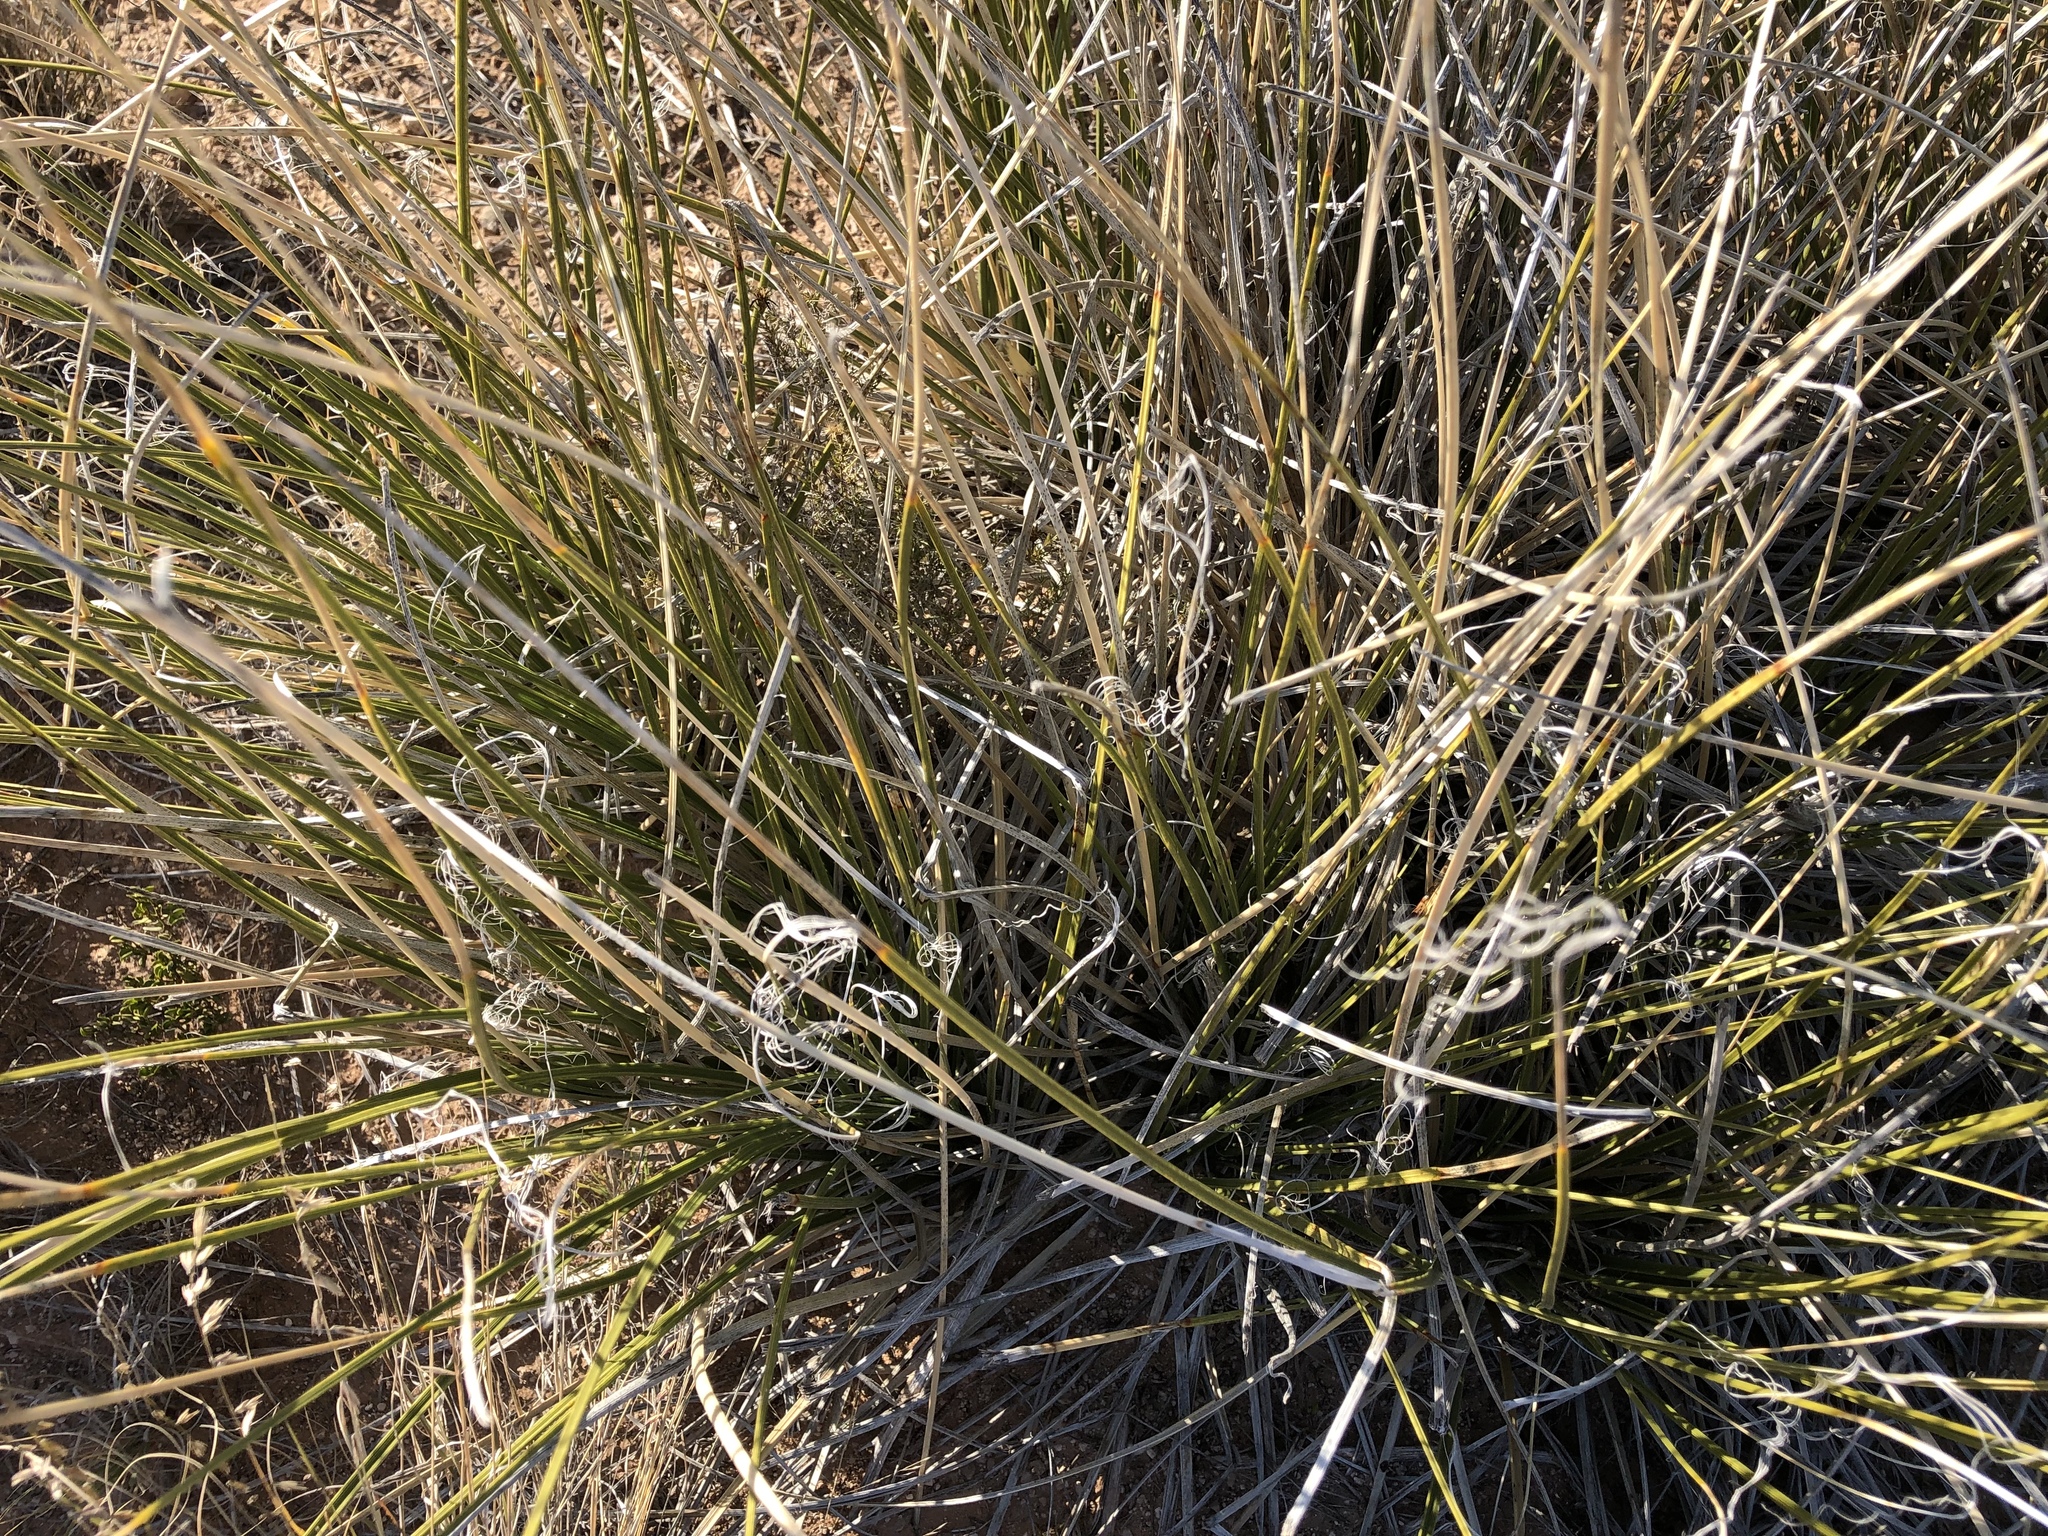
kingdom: Plantae
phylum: Tracheophyta
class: Liliopsida
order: Asparagales
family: Asparagaceae
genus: Nolina
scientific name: Nolina texana
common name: Texas sacahuiste
